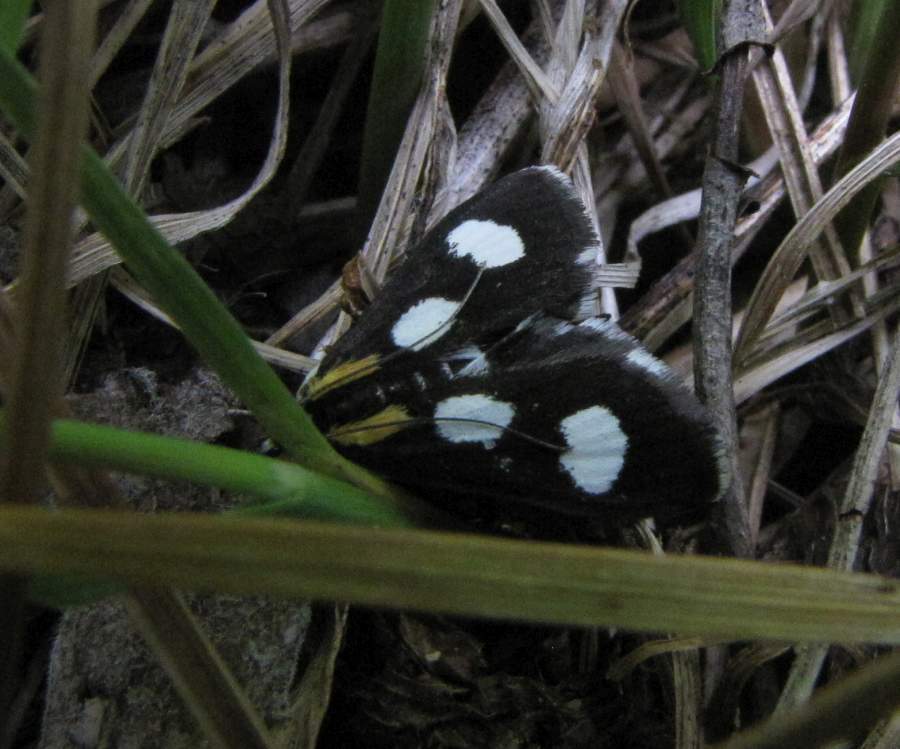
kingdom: Animalia
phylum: Arthropoda
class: Insecta
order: Lepidoptera
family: Crambidae
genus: Anania
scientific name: Anania funebris
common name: White-spotted sable moth
